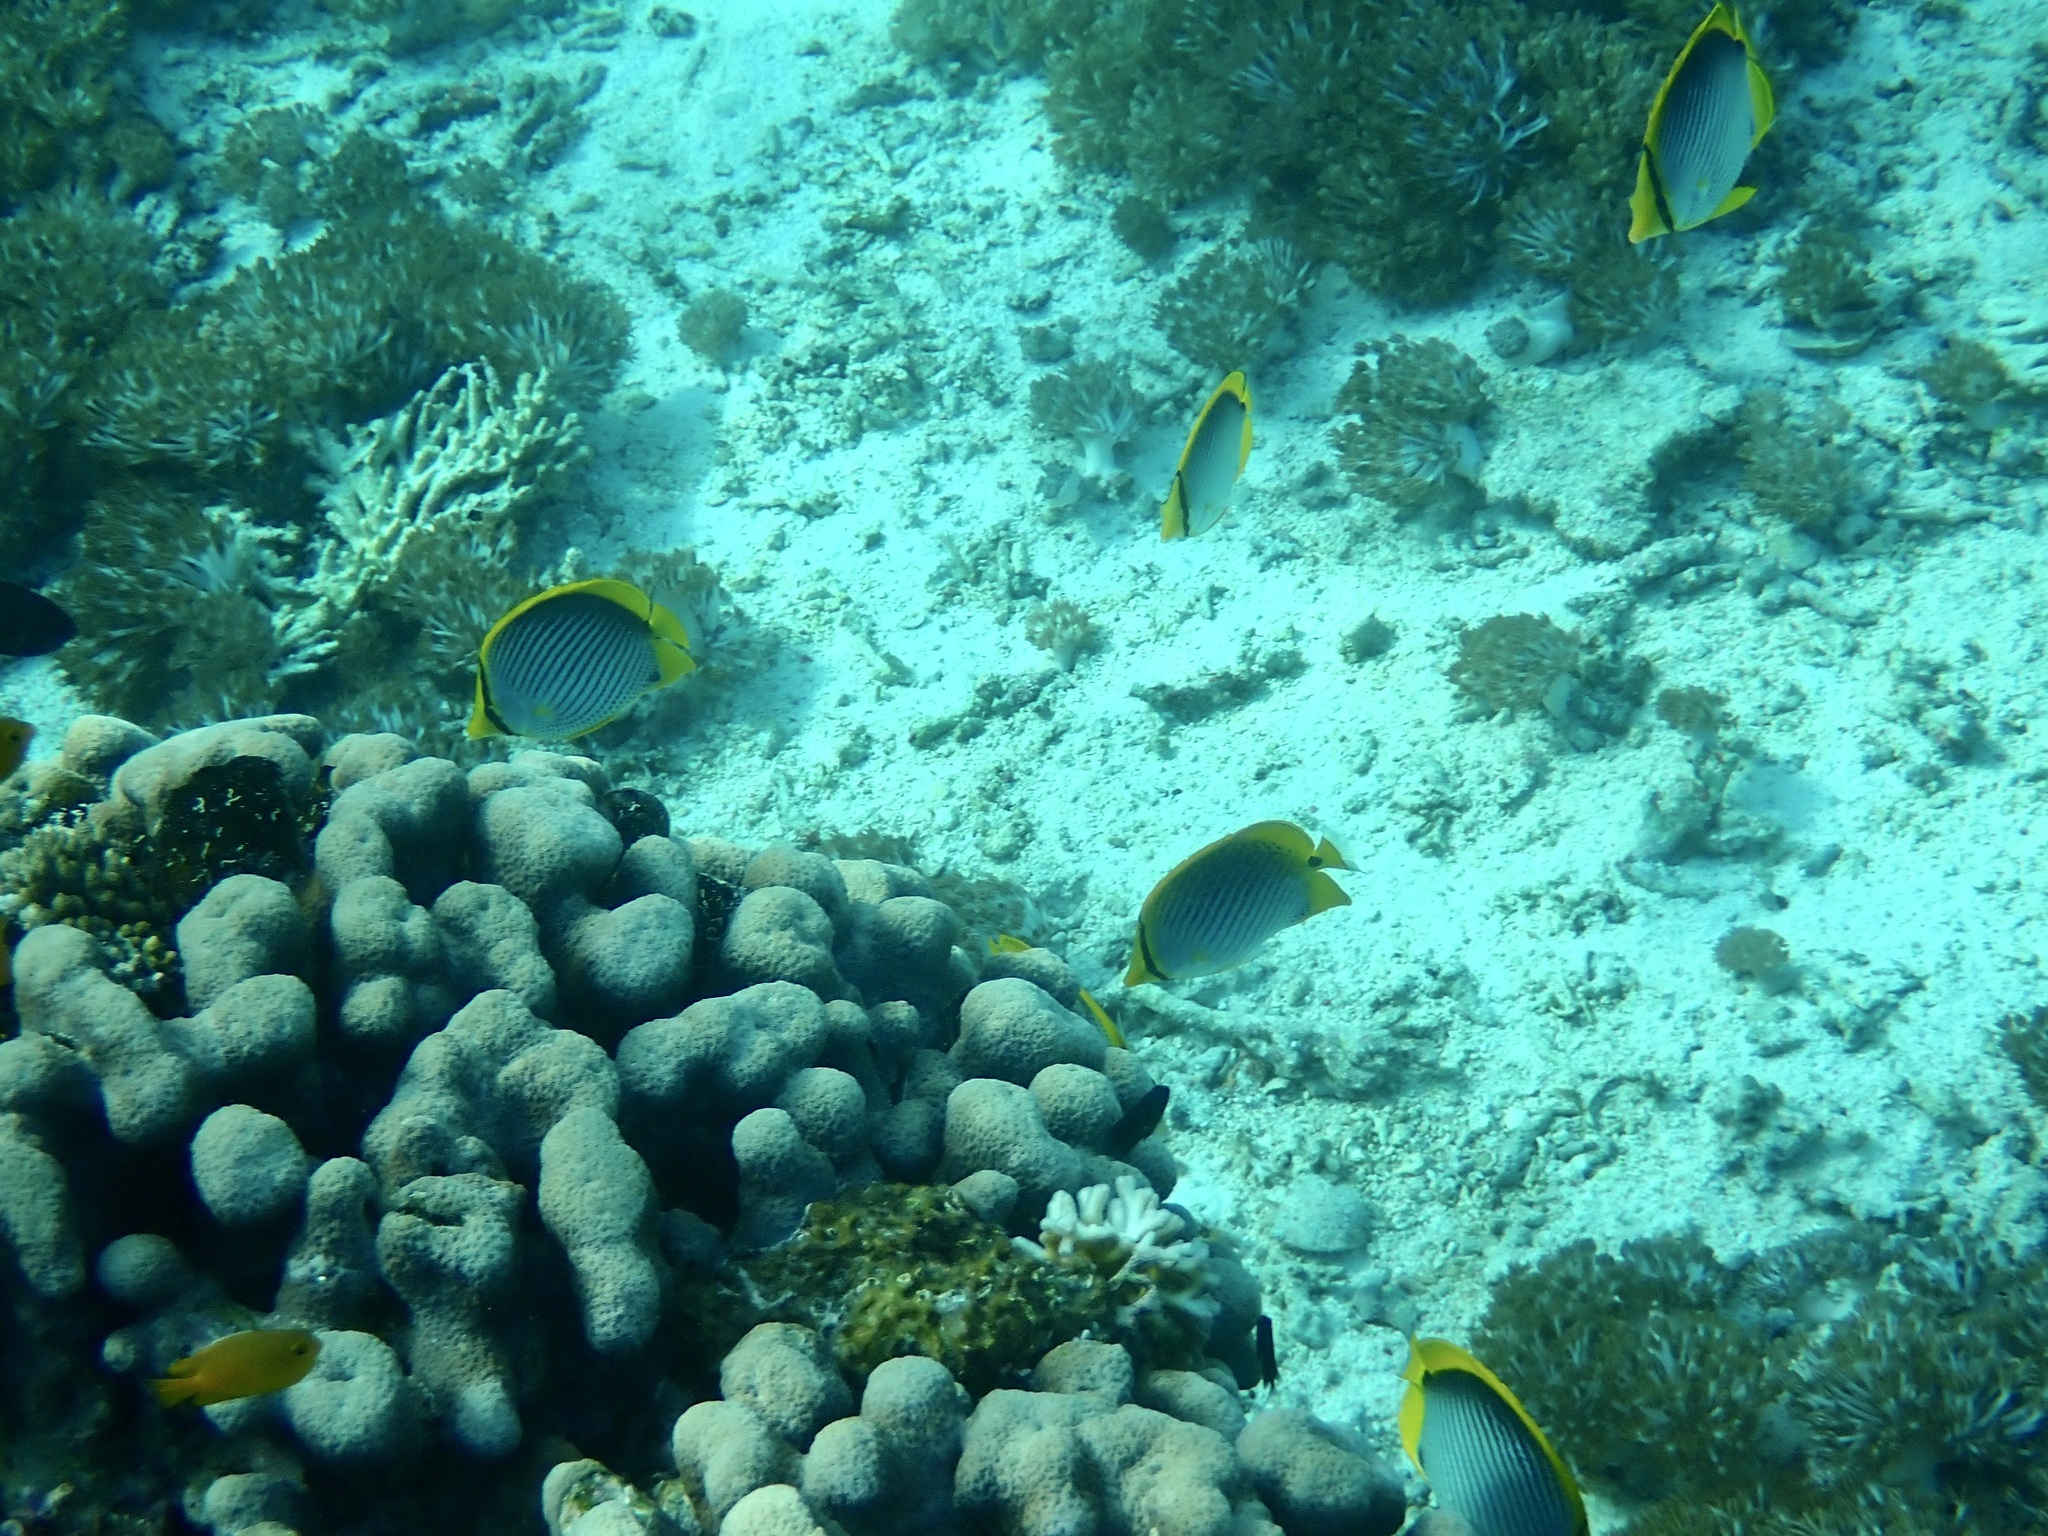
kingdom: Animalia
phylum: Chordata
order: Perciformes
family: Chaetodontidae
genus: Chaetodon
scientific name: Chaetodon melannotus
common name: Blackback butterflyfish
